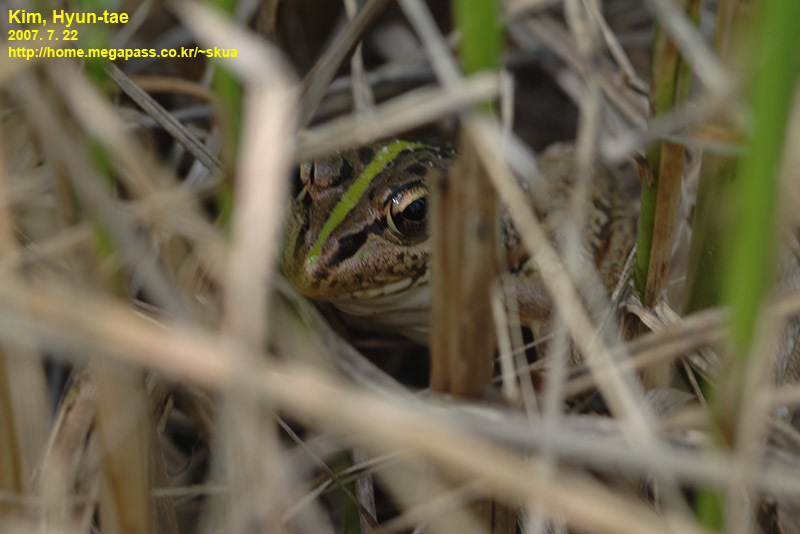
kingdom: Animalia
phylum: Chordata
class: Amphibia
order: Anura
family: Ranidae
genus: Pelophylax
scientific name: Pelophylax nigromaculatus
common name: Black-spotted pond frog
